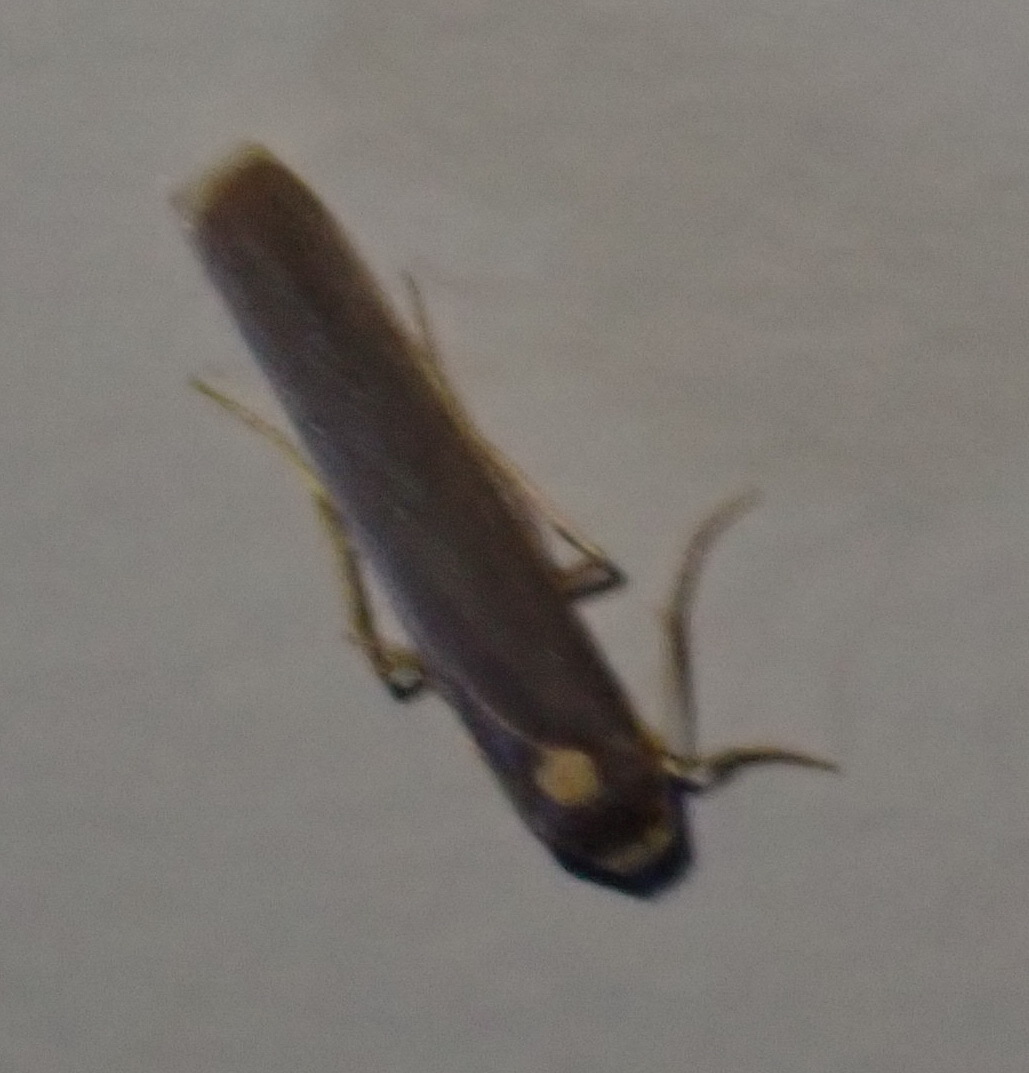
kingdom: Animalia
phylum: Arthropoda
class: Insecta
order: Lepidoptera
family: Erebidae
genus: Sozusa
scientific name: Sozusa scutellata
